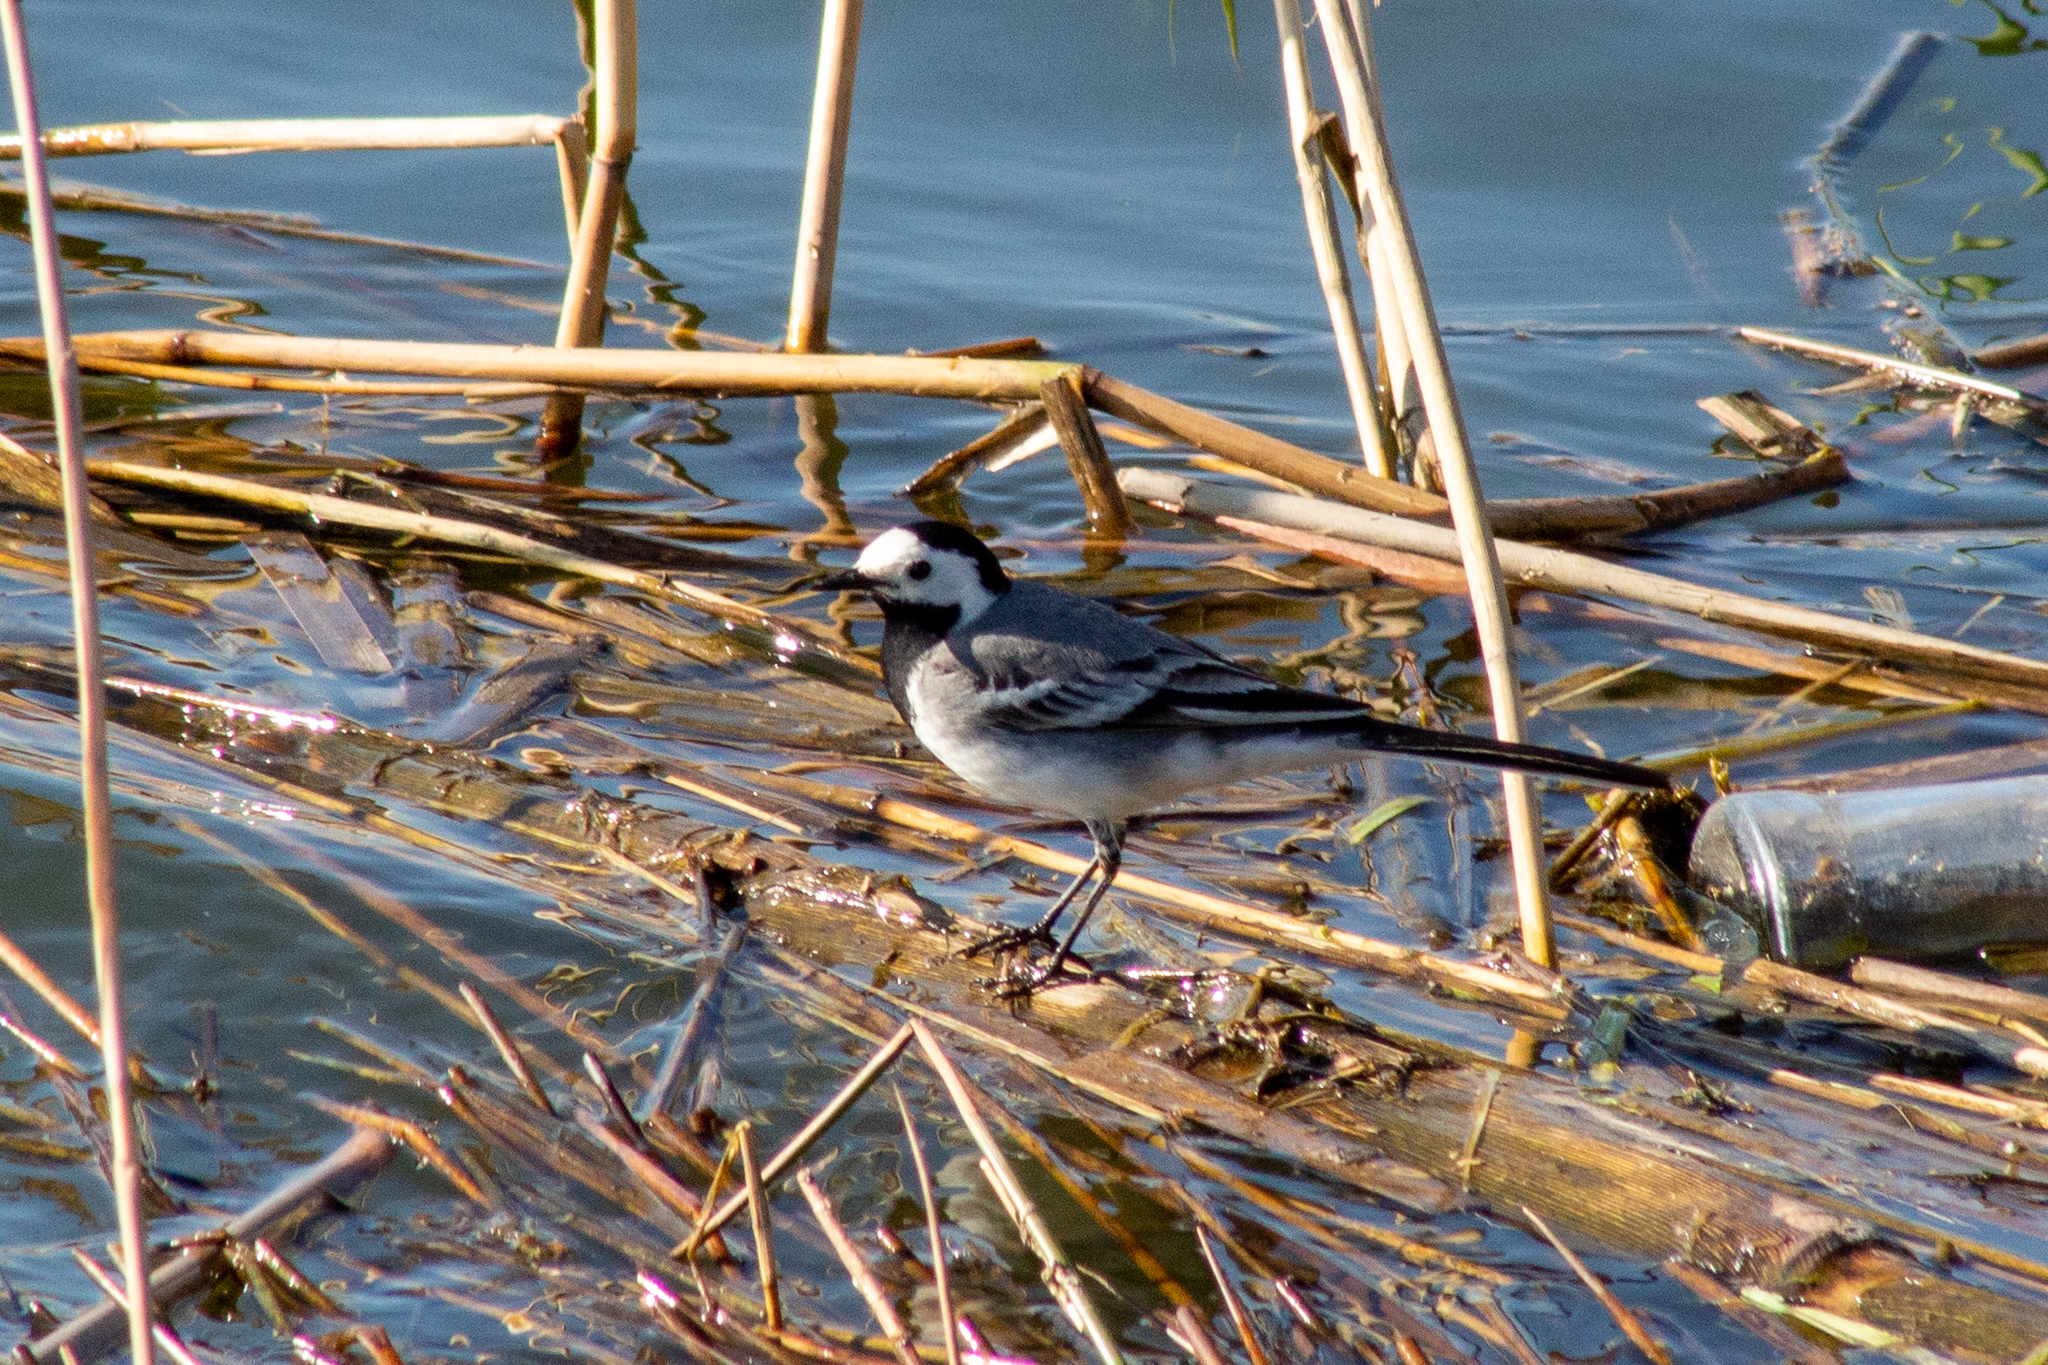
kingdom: Animalia
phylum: Chordata
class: Aves
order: Passeriformes
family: Motacillidae
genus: Motacilla
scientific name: Motacilla alba
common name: White wagtail
